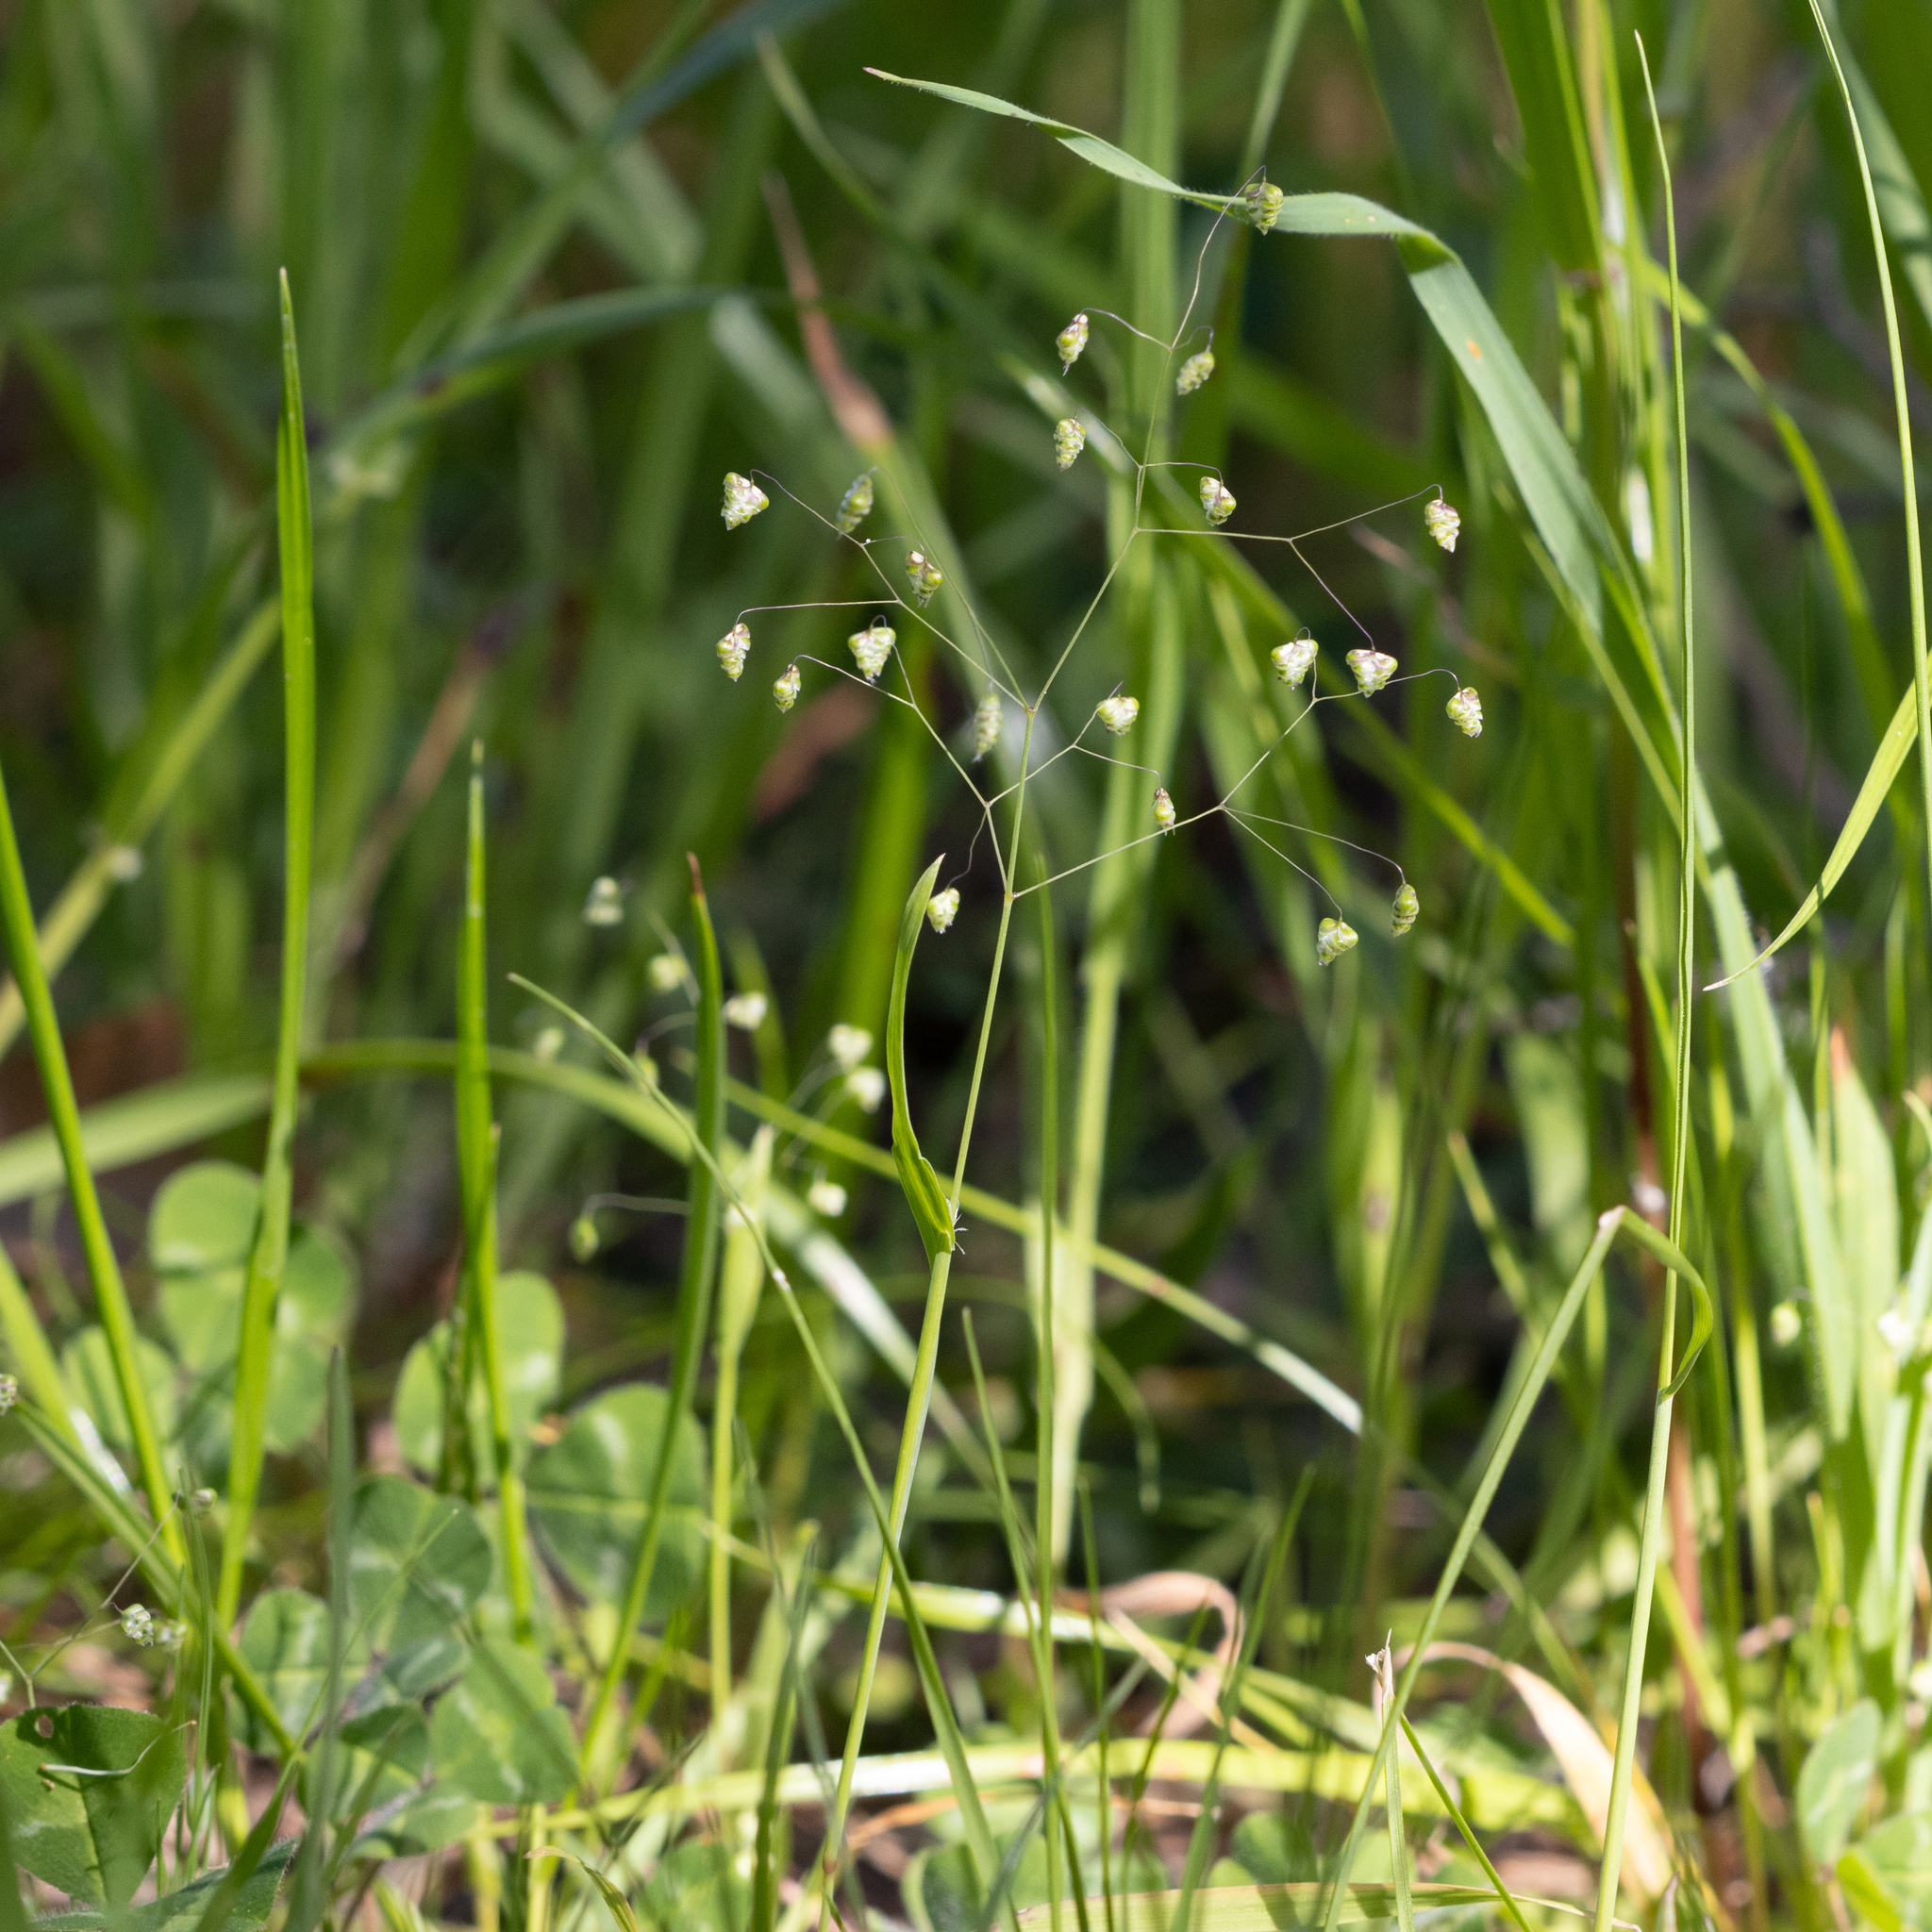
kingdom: Plantae
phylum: Tracheophyta
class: Liliopsida
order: Poales
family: Poaceae
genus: Briza
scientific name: Briza minor
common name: Lesser quaking-grass
